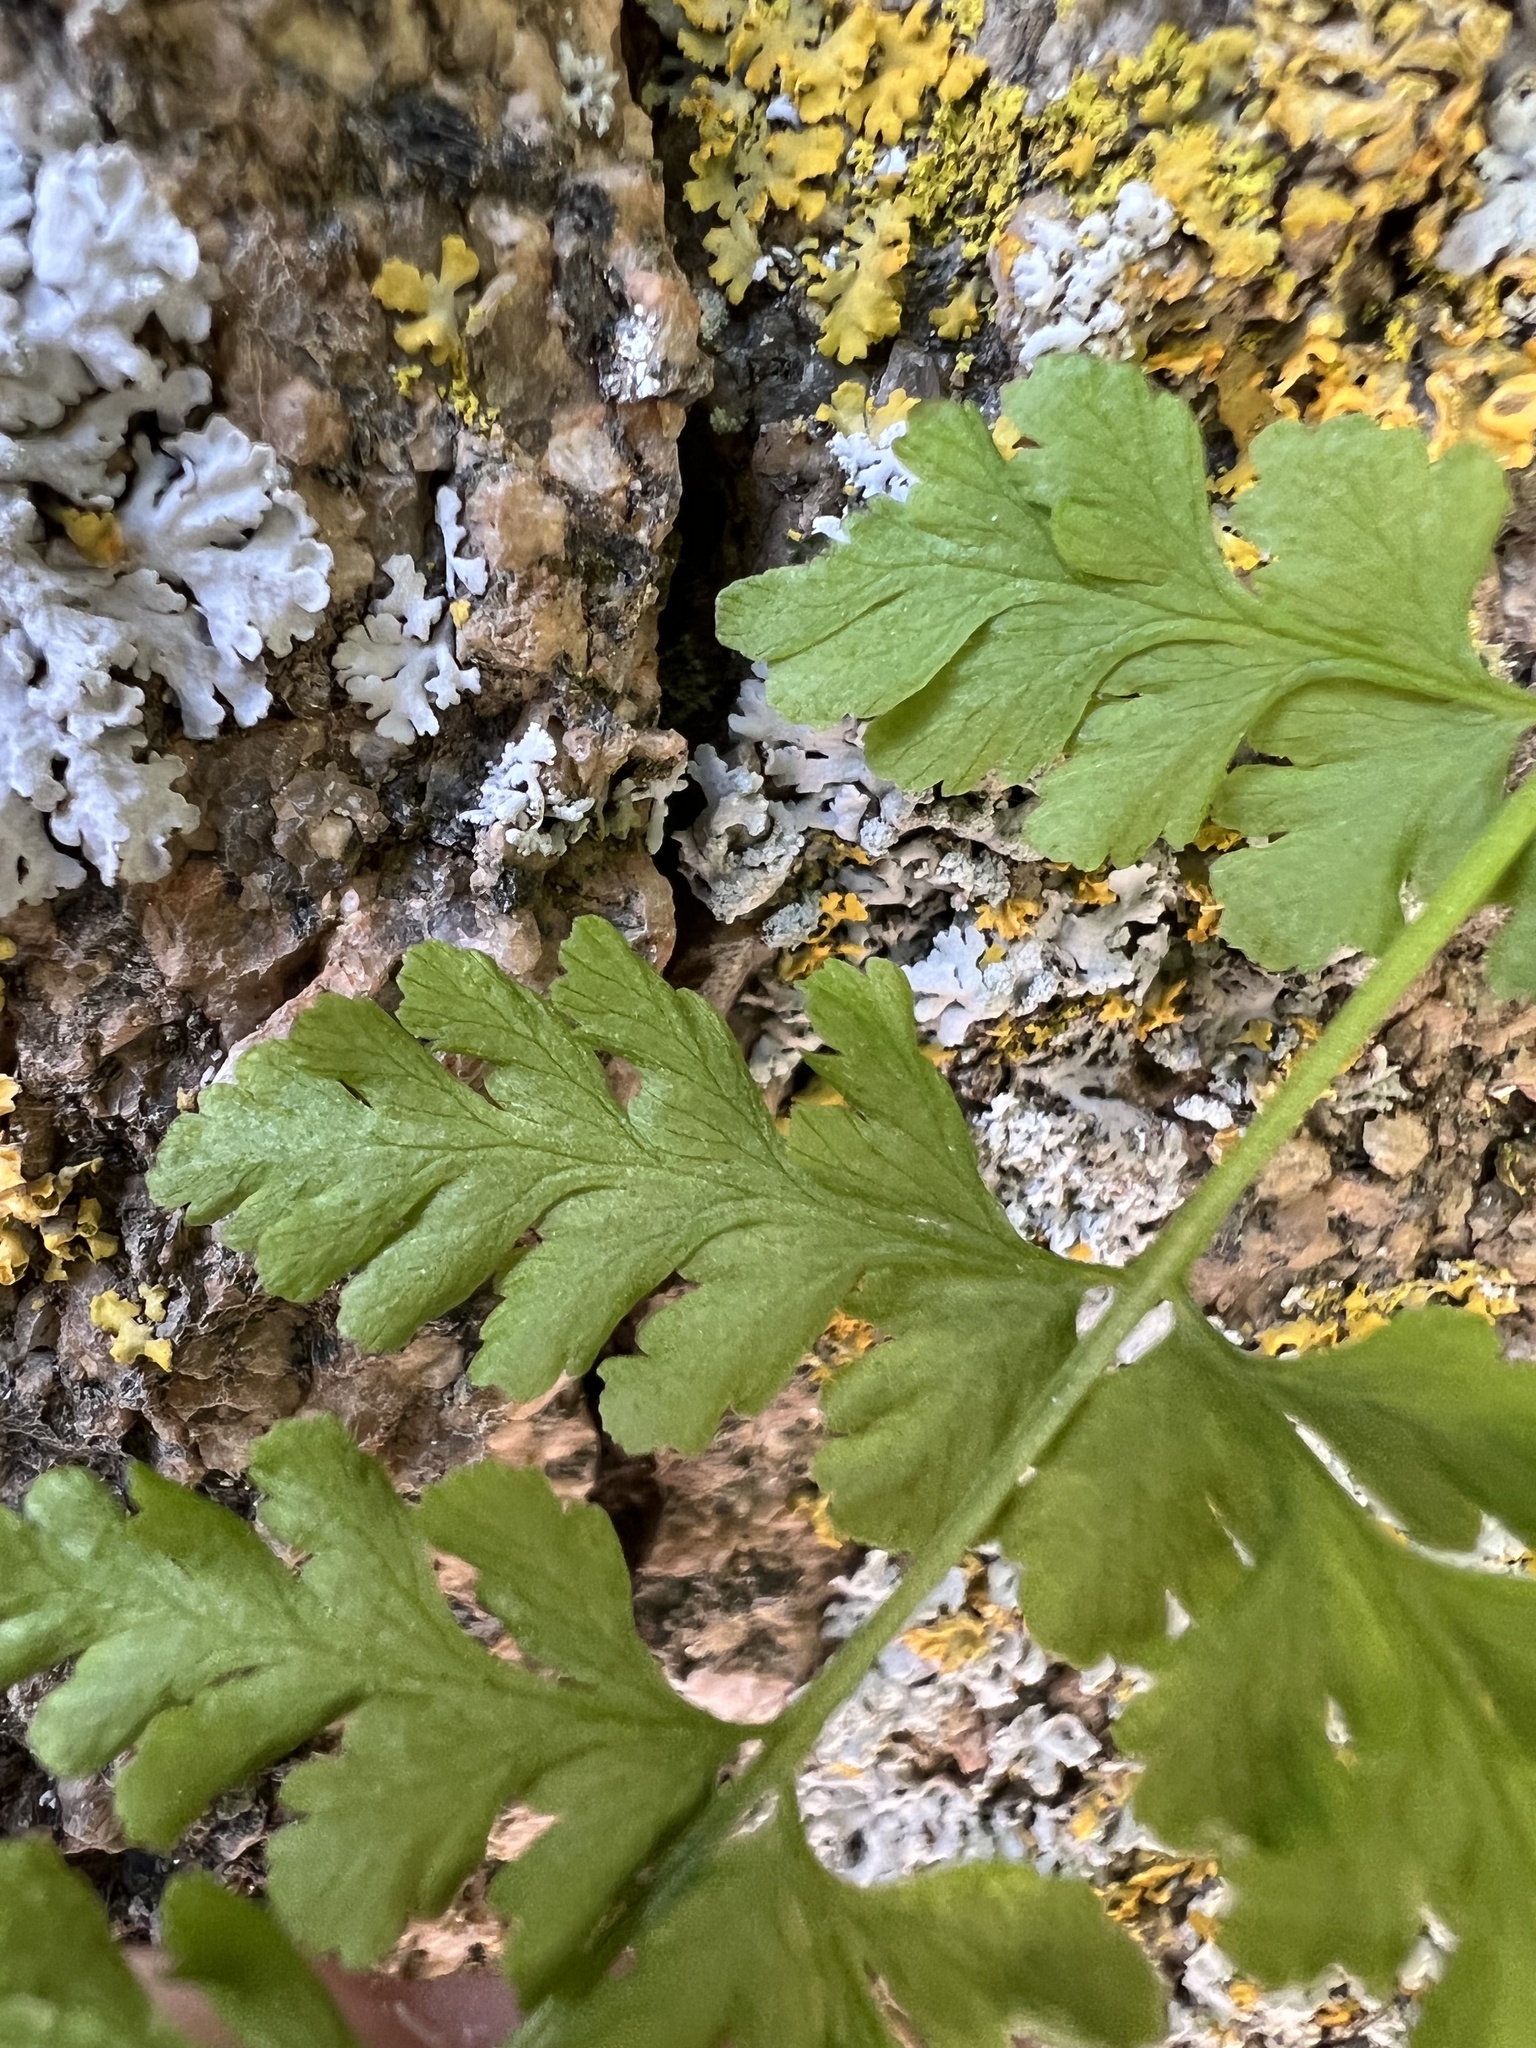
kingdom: Plantae
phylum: Tracheophyta
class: Polypodiopsida
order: Polypodiales
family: Cystopteridaceae
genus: Cystopteris
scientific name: Cystopteris fragilis
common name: Brittle bladder fern
